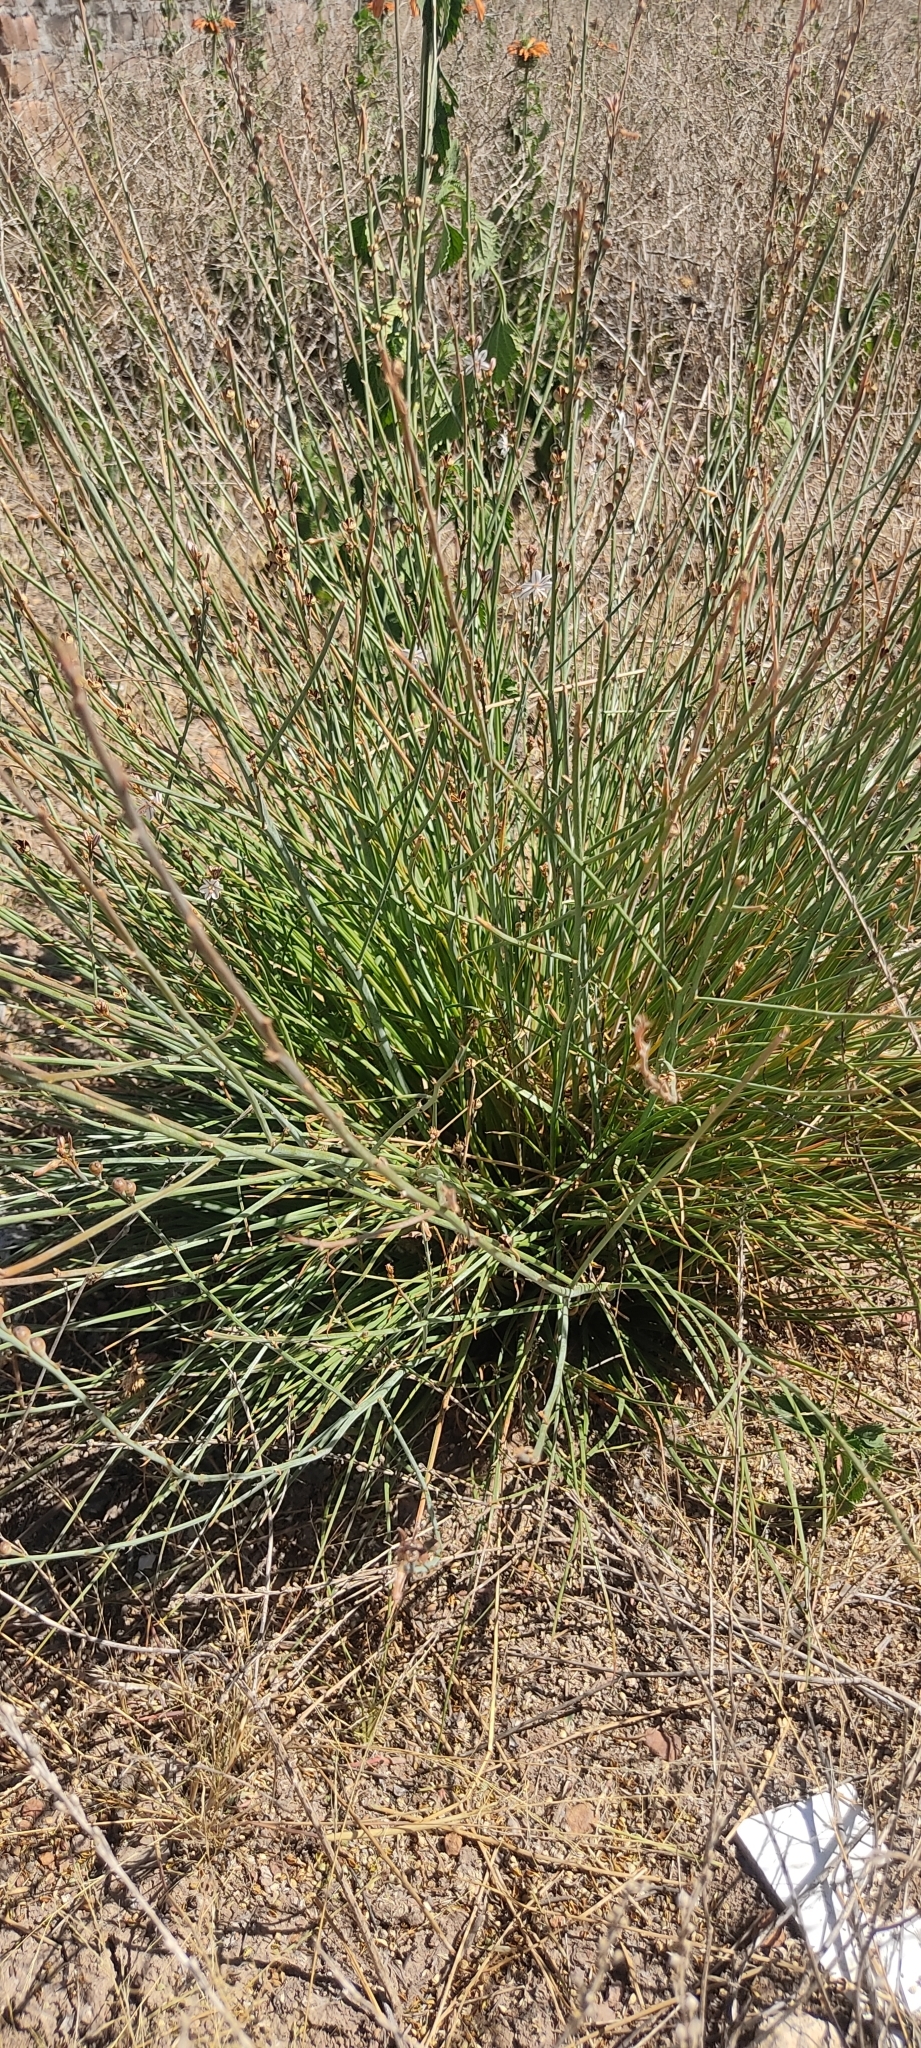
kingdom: Plantae
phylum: Tracheophyta
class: Liliopsida
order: Asparagales
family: Asphodelaceae
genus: Asphodelus
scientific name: Asphodelus fistulosus
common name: Onionweed
